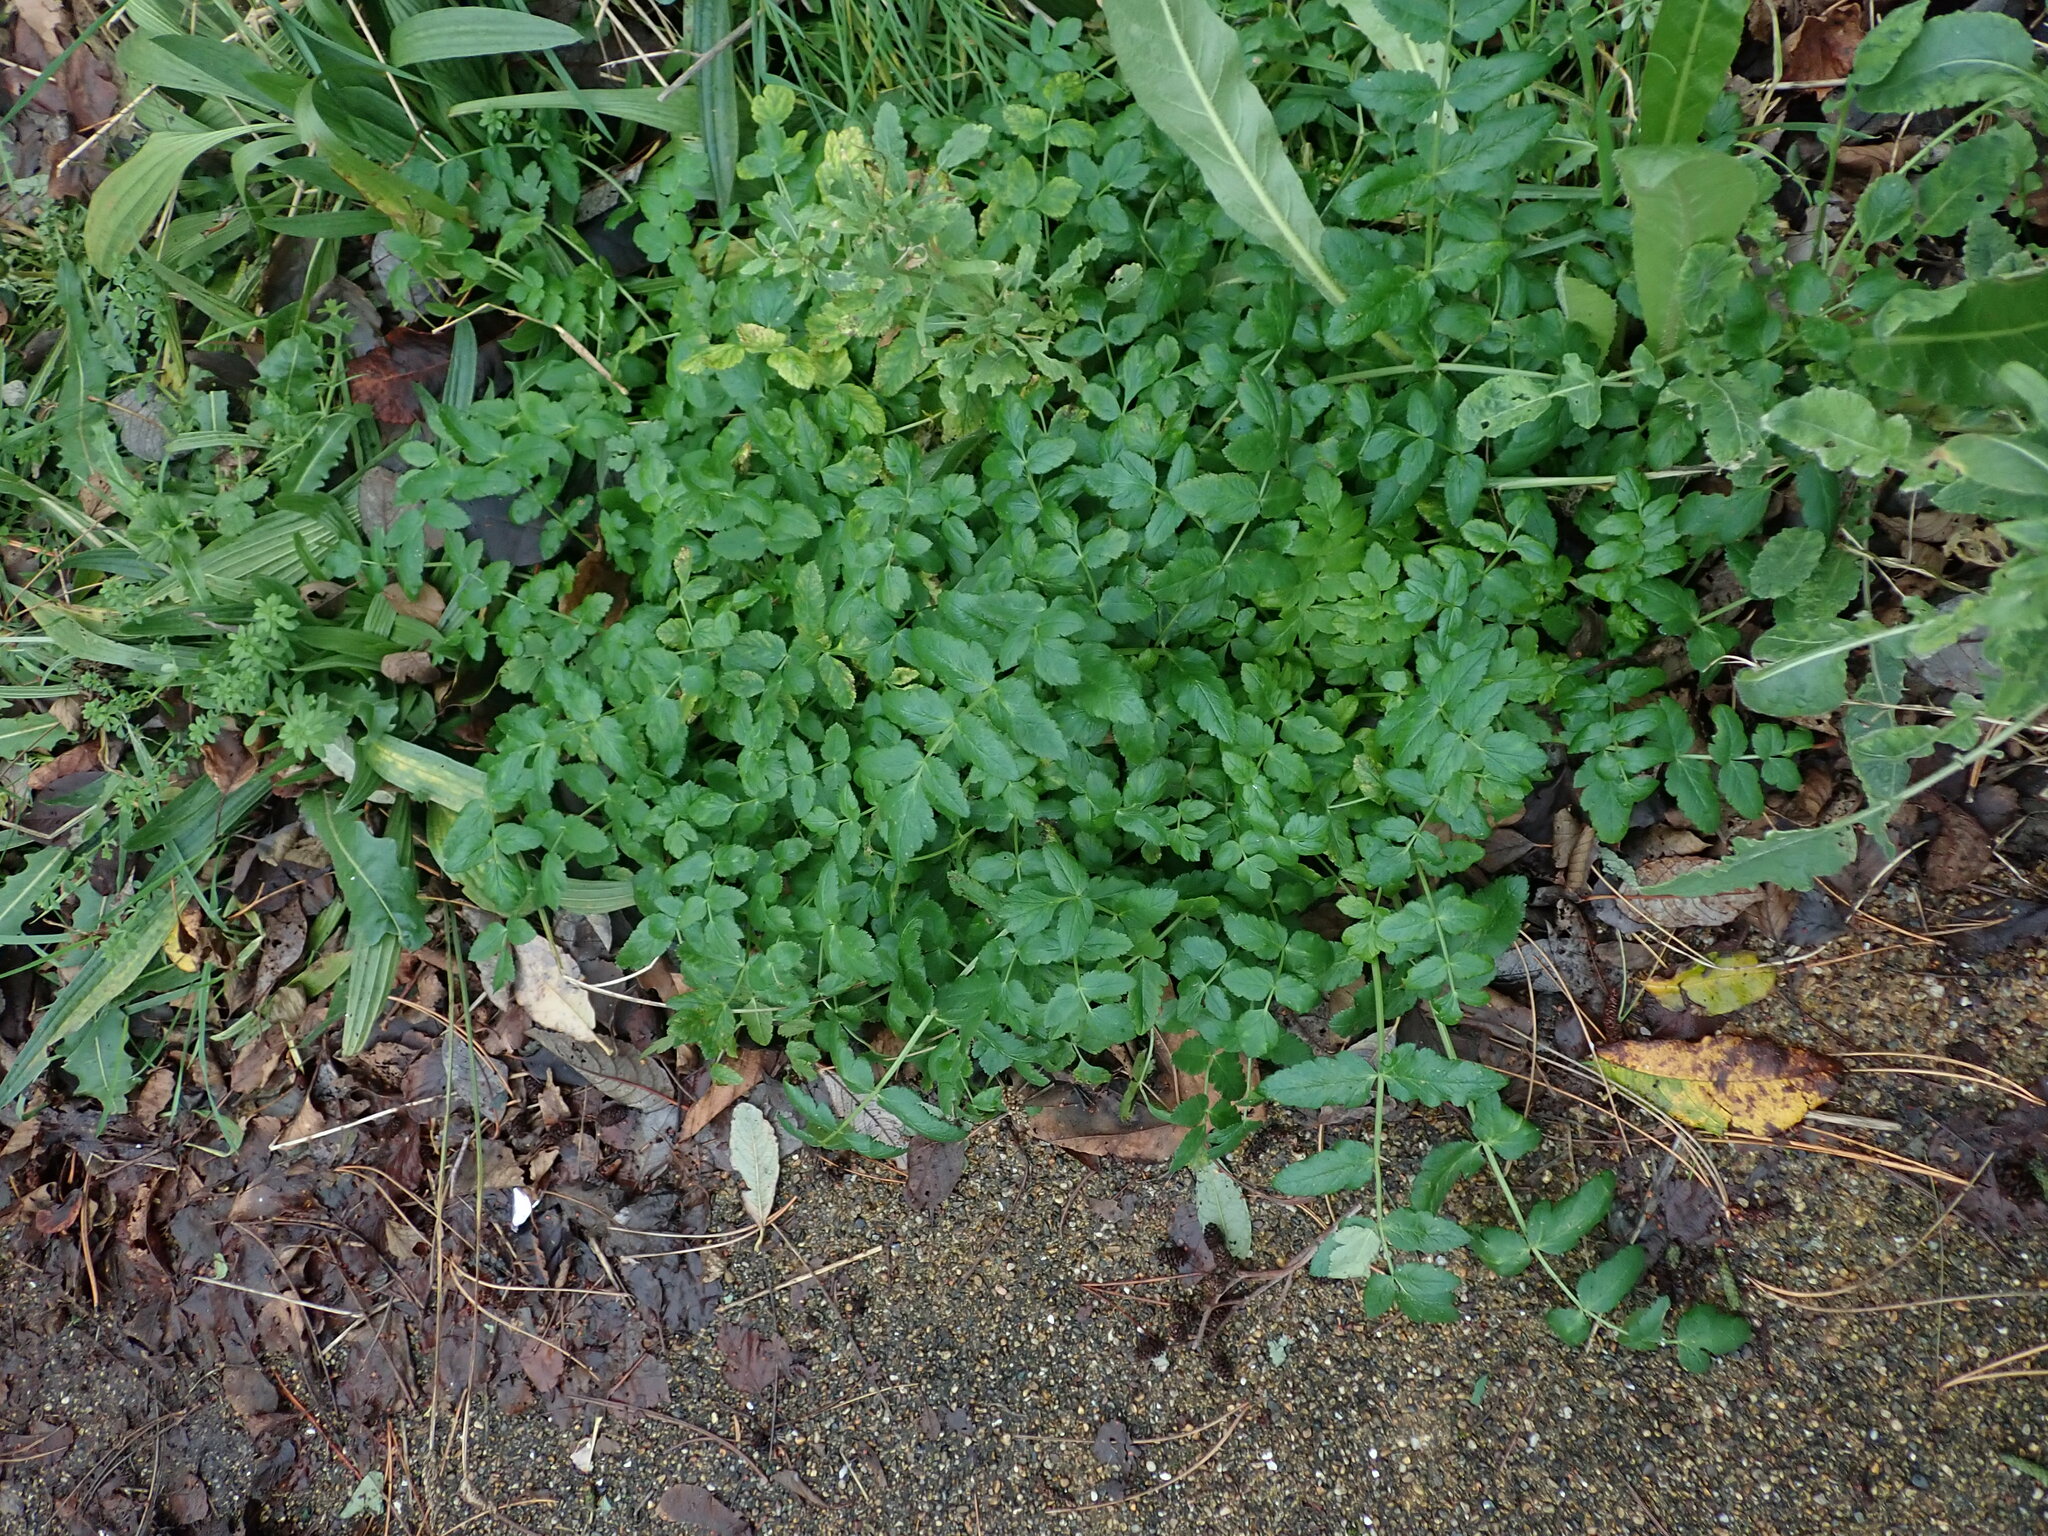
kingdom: Plantae
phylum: Tracheophyta
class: Magnoliopsida
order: Apiales
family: Apiaceae
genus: Sison
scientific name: Sison amomum
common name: Stone-parsley
